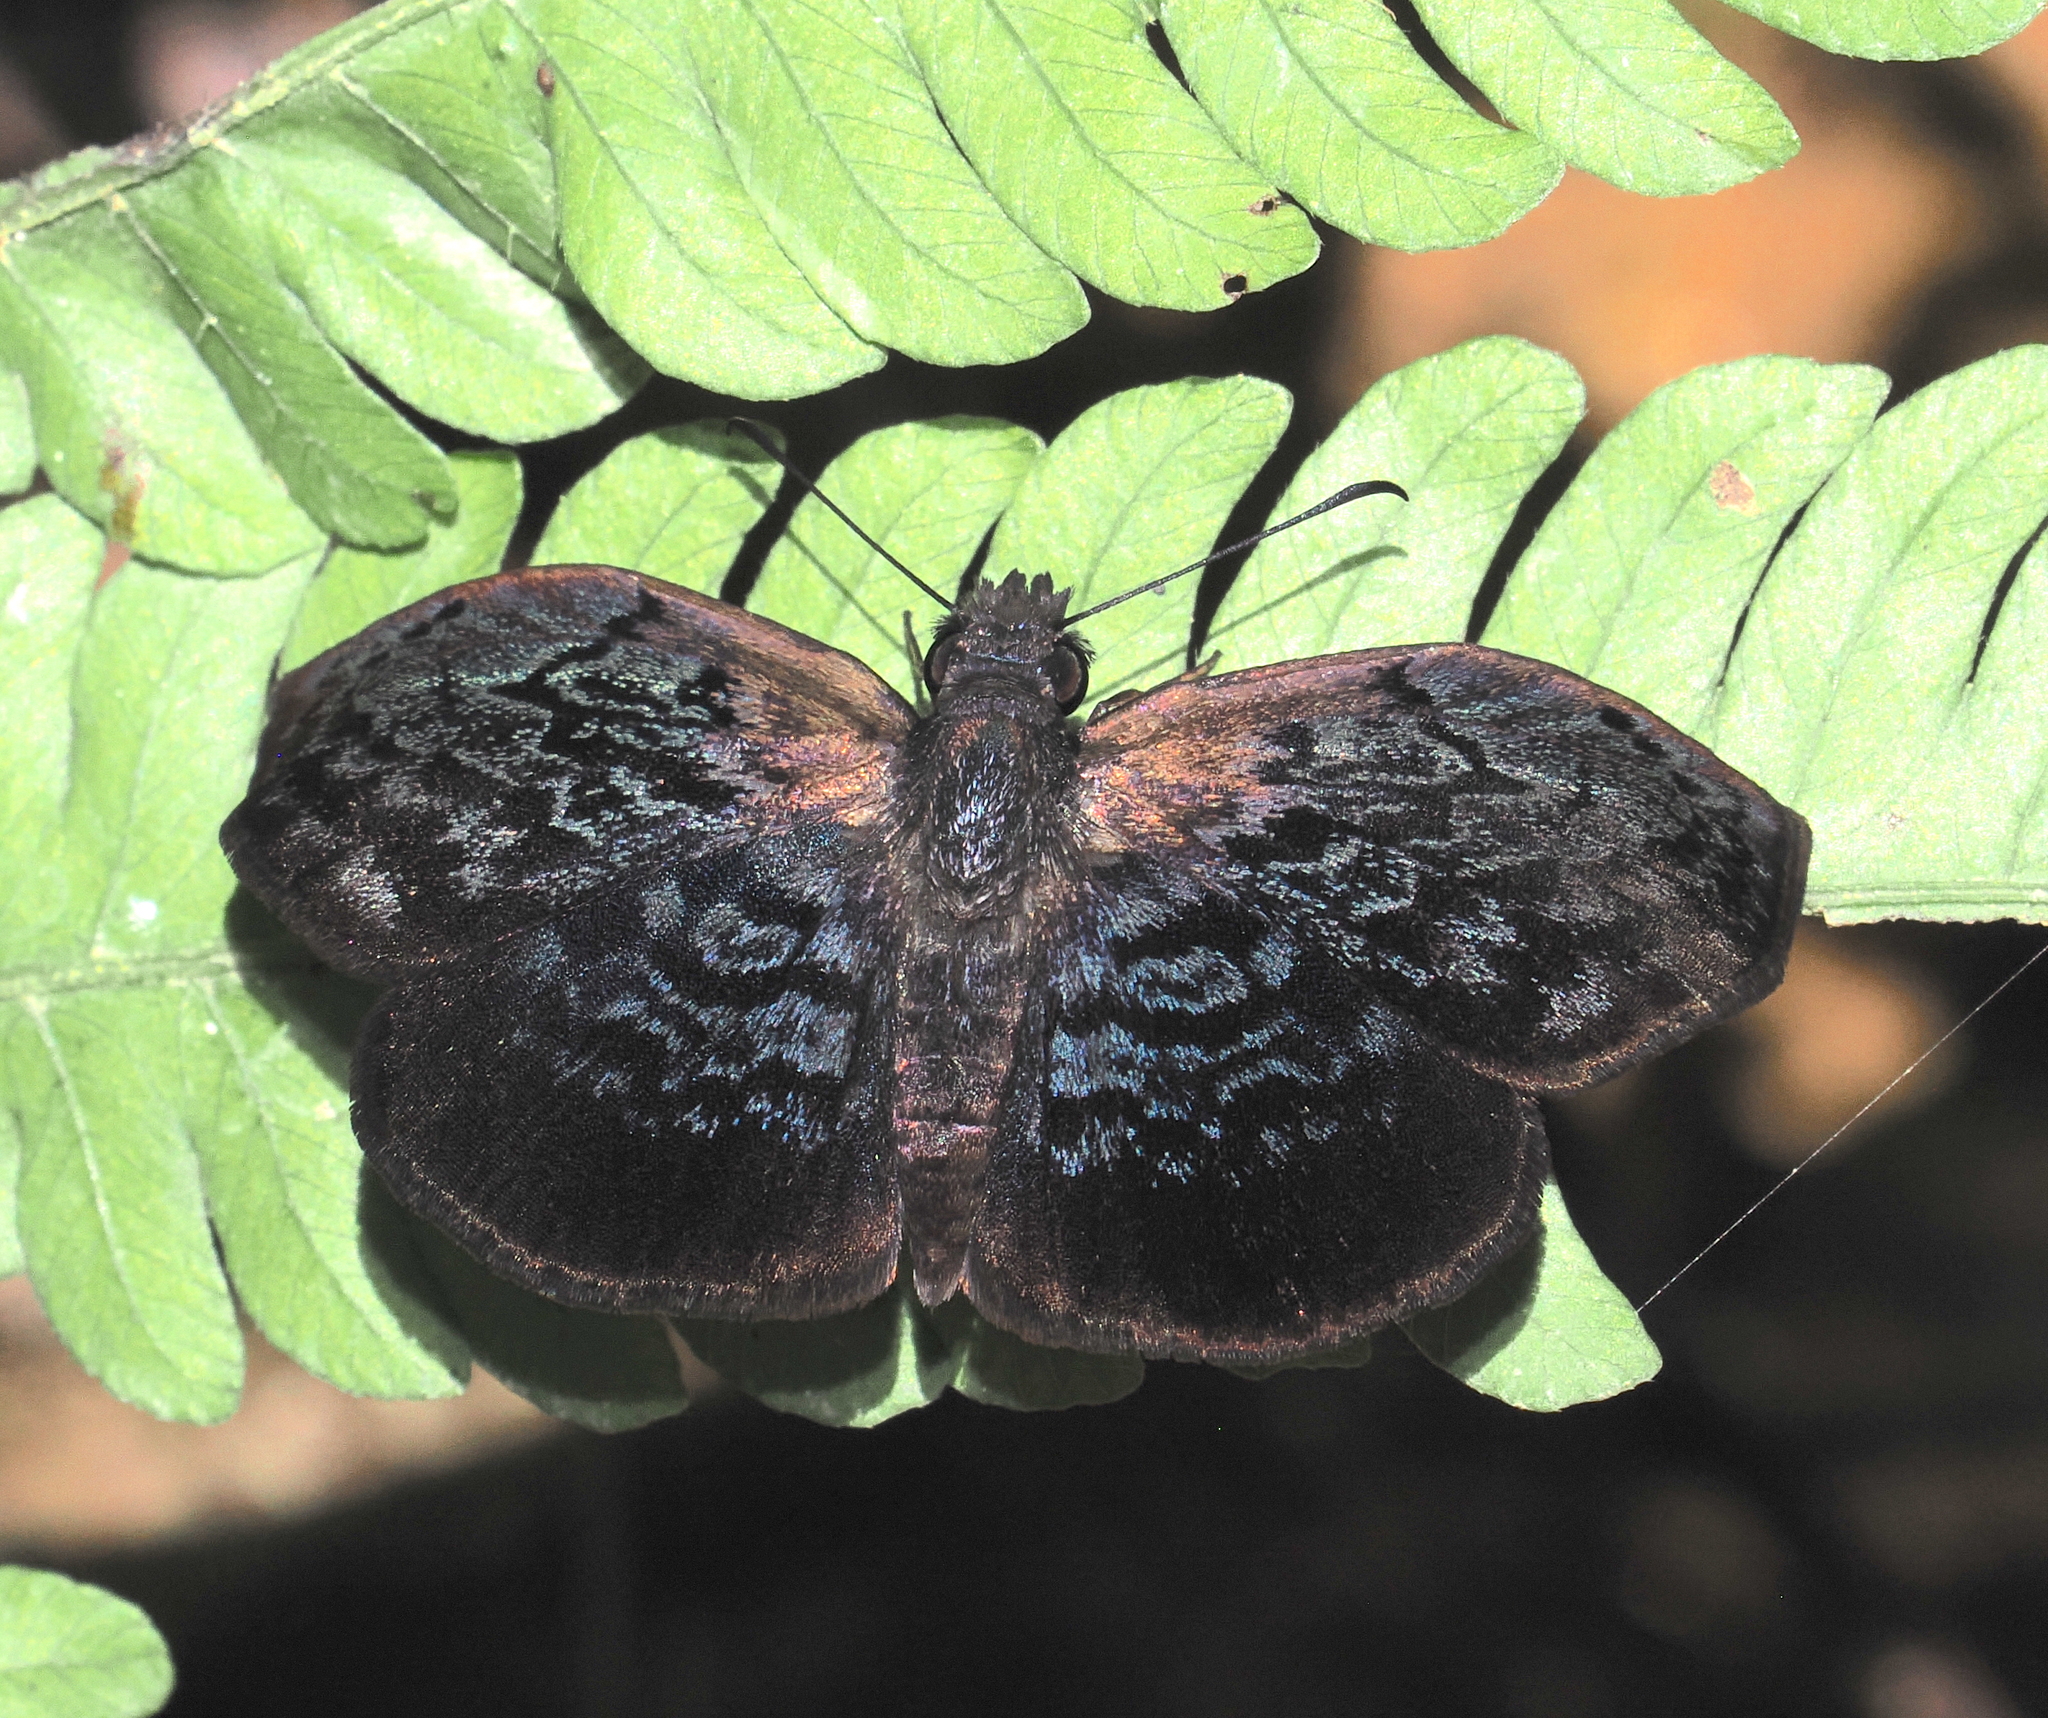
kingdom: Animalia
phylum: Arthropoda
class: Insecta
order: Lepidoptera
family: Hesperiidae
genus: Cycloglypha
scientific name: Cycloglypha enega
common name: Enega bent-skipper
